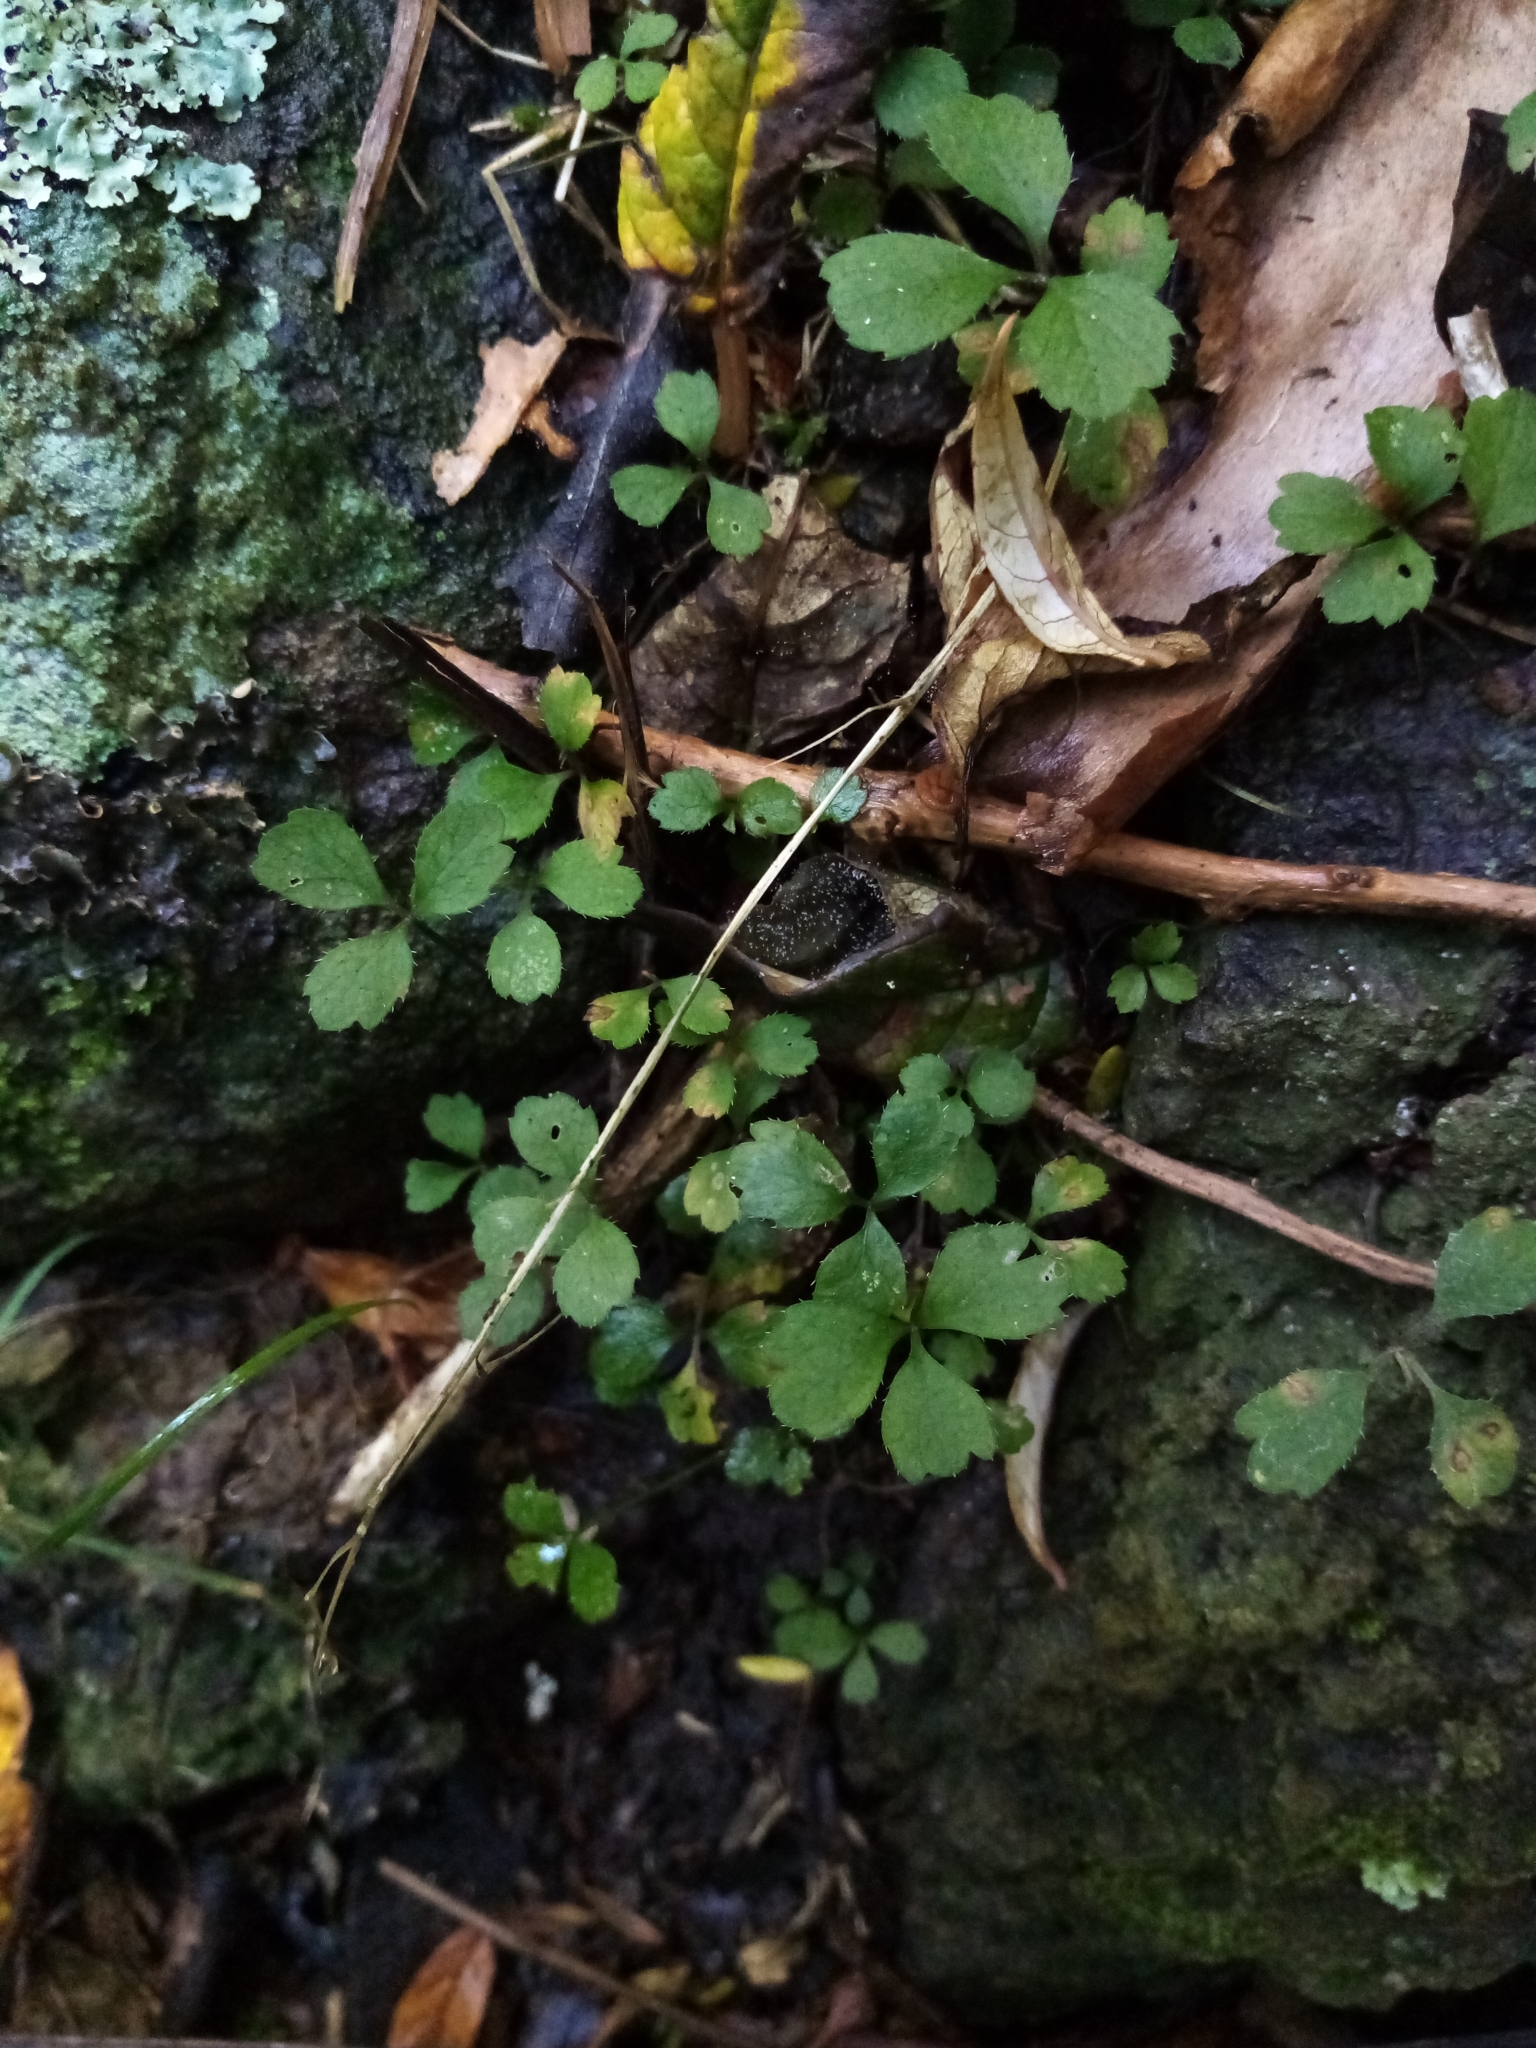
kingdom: Plantae
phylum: Tracheophyta
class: Magnoliopsida
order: Apiales
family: Apiaceae
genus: Azorella
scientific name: Azorella hookeri
